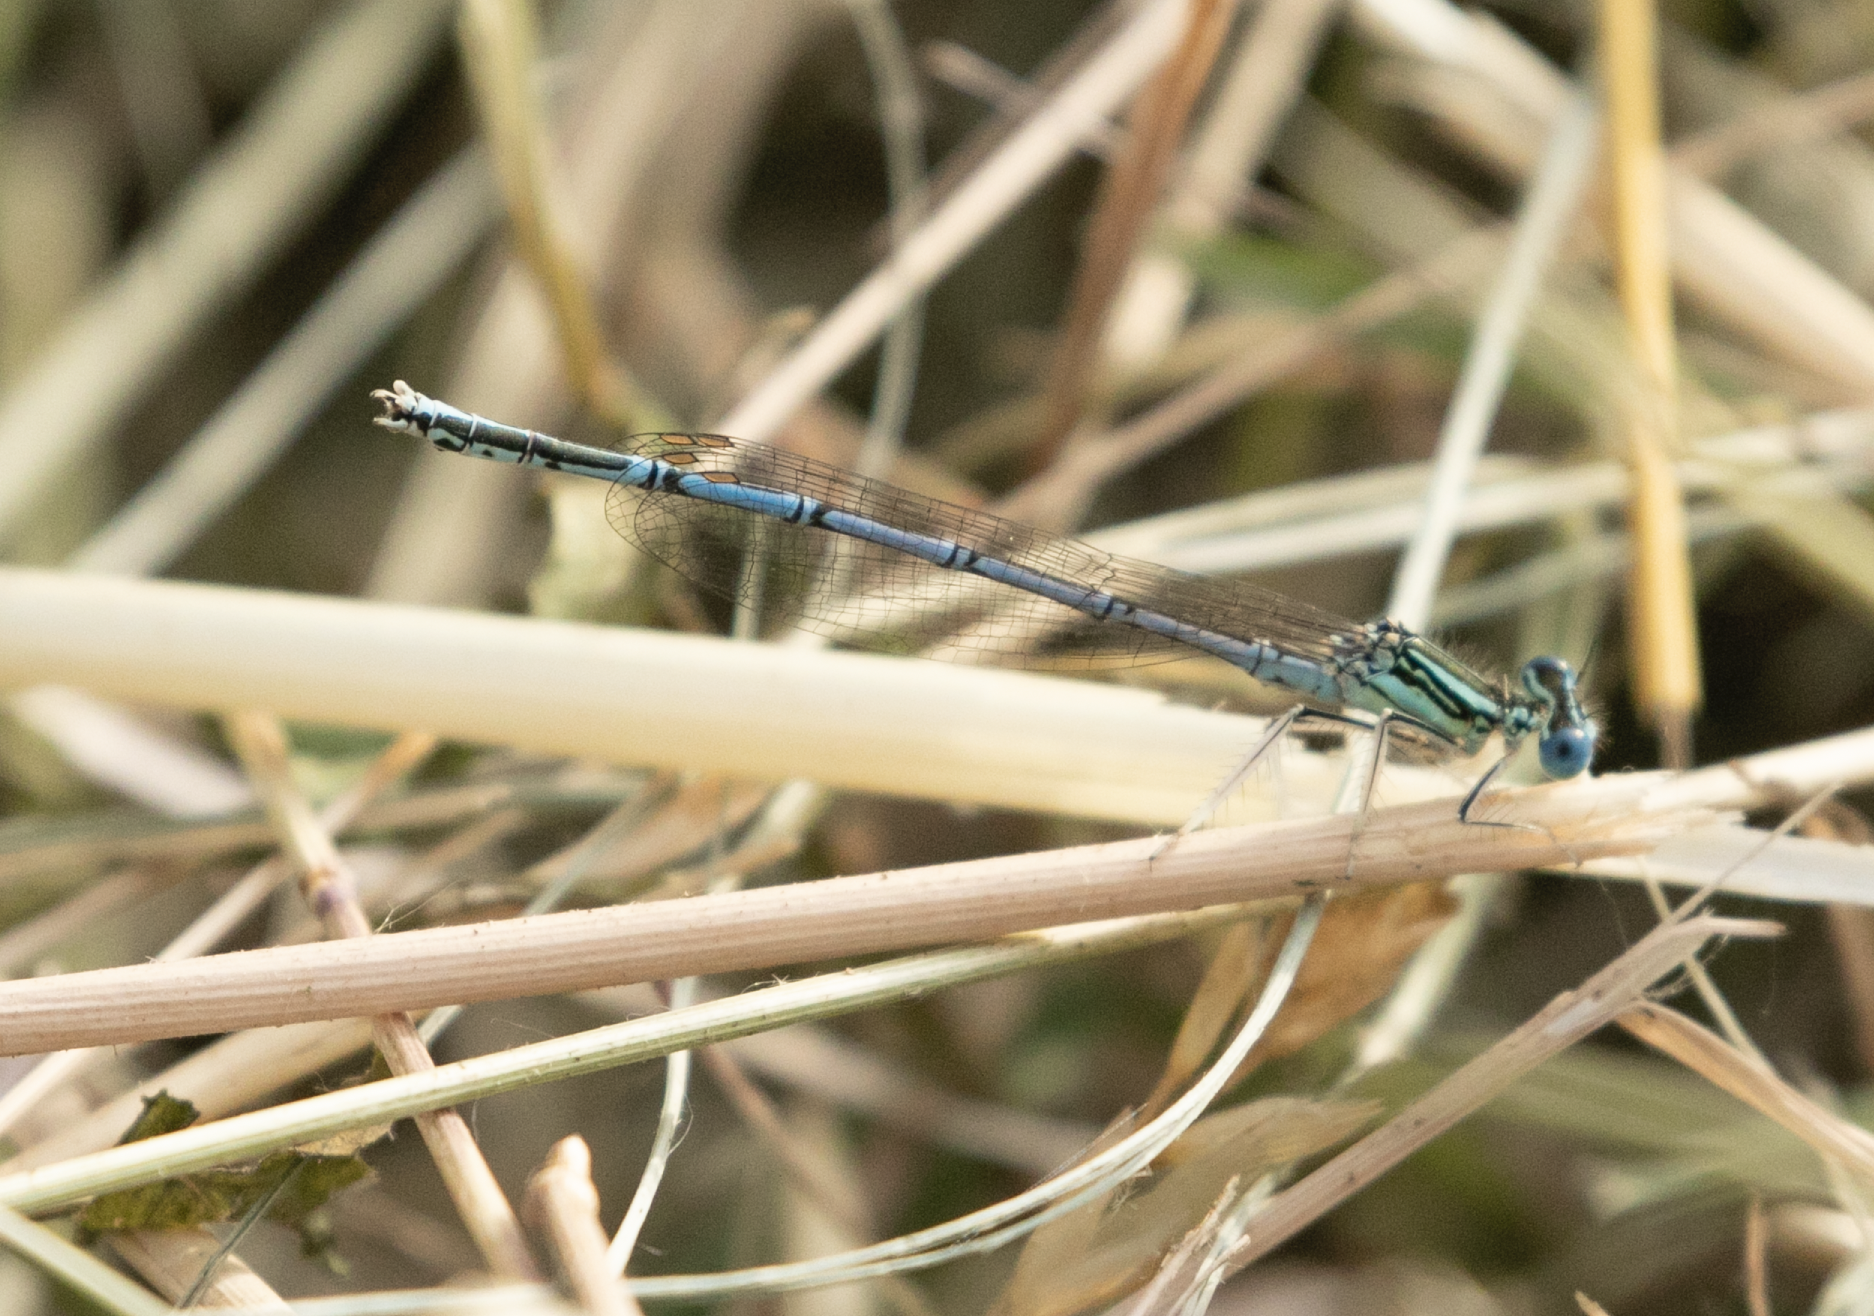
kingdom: Animalia
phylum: Arthropoda
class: Insecta
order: Odonata
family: Platycnemididae
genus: Platycnemis
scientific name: Platycnemis pennipes
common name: White-legged damselfly
